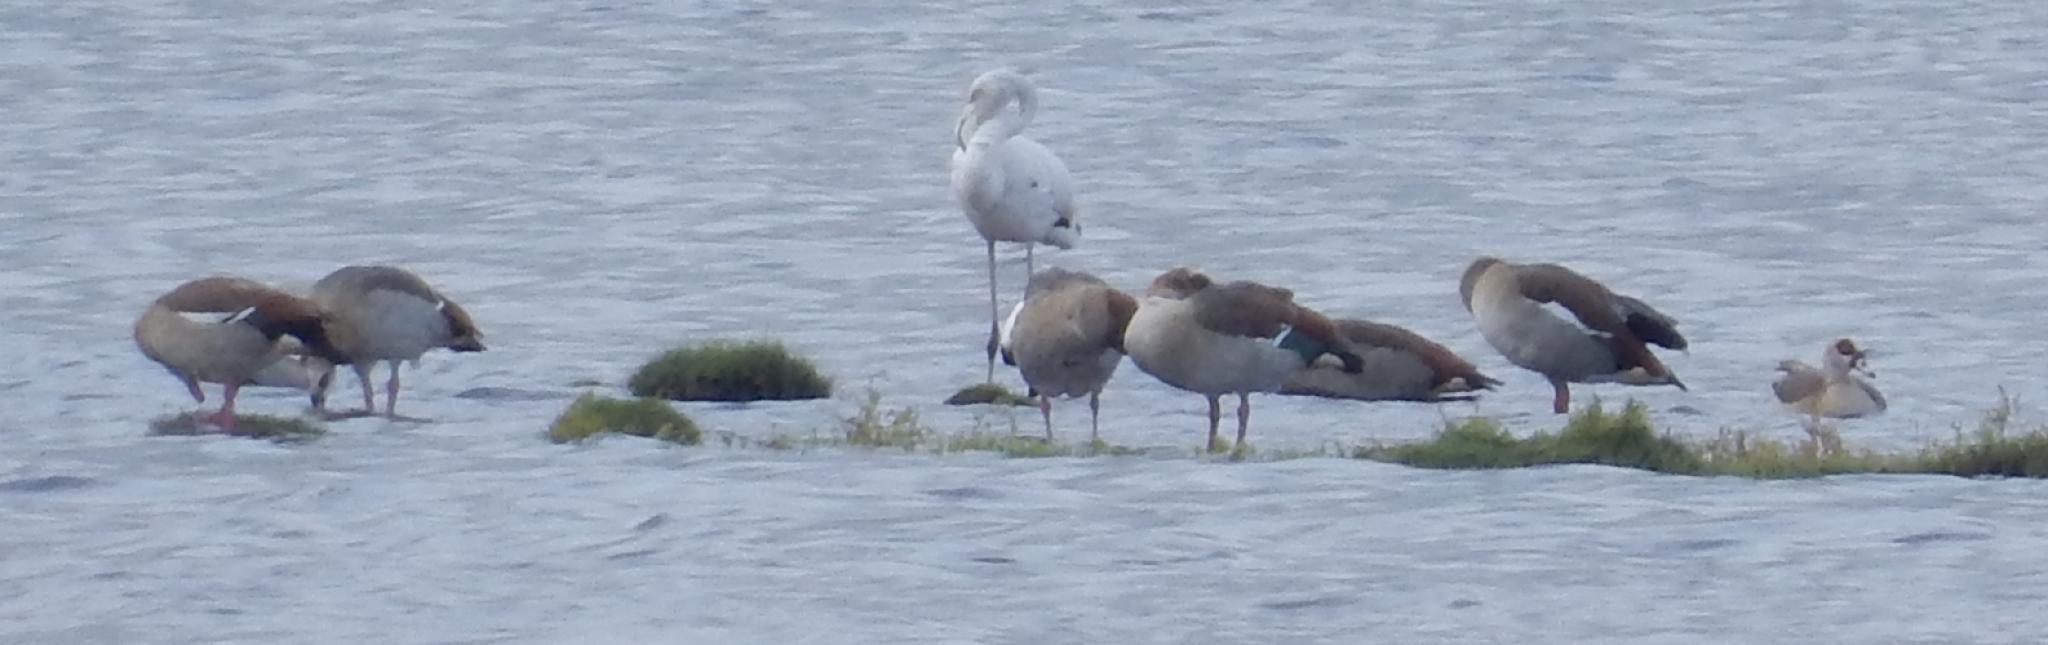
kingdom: Animalia
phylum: Chordata
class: Aves
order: Anseriformes
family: Anatidae
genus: Alopochen
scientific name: Alopochen aegyptiaca
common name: Egyptian goose
